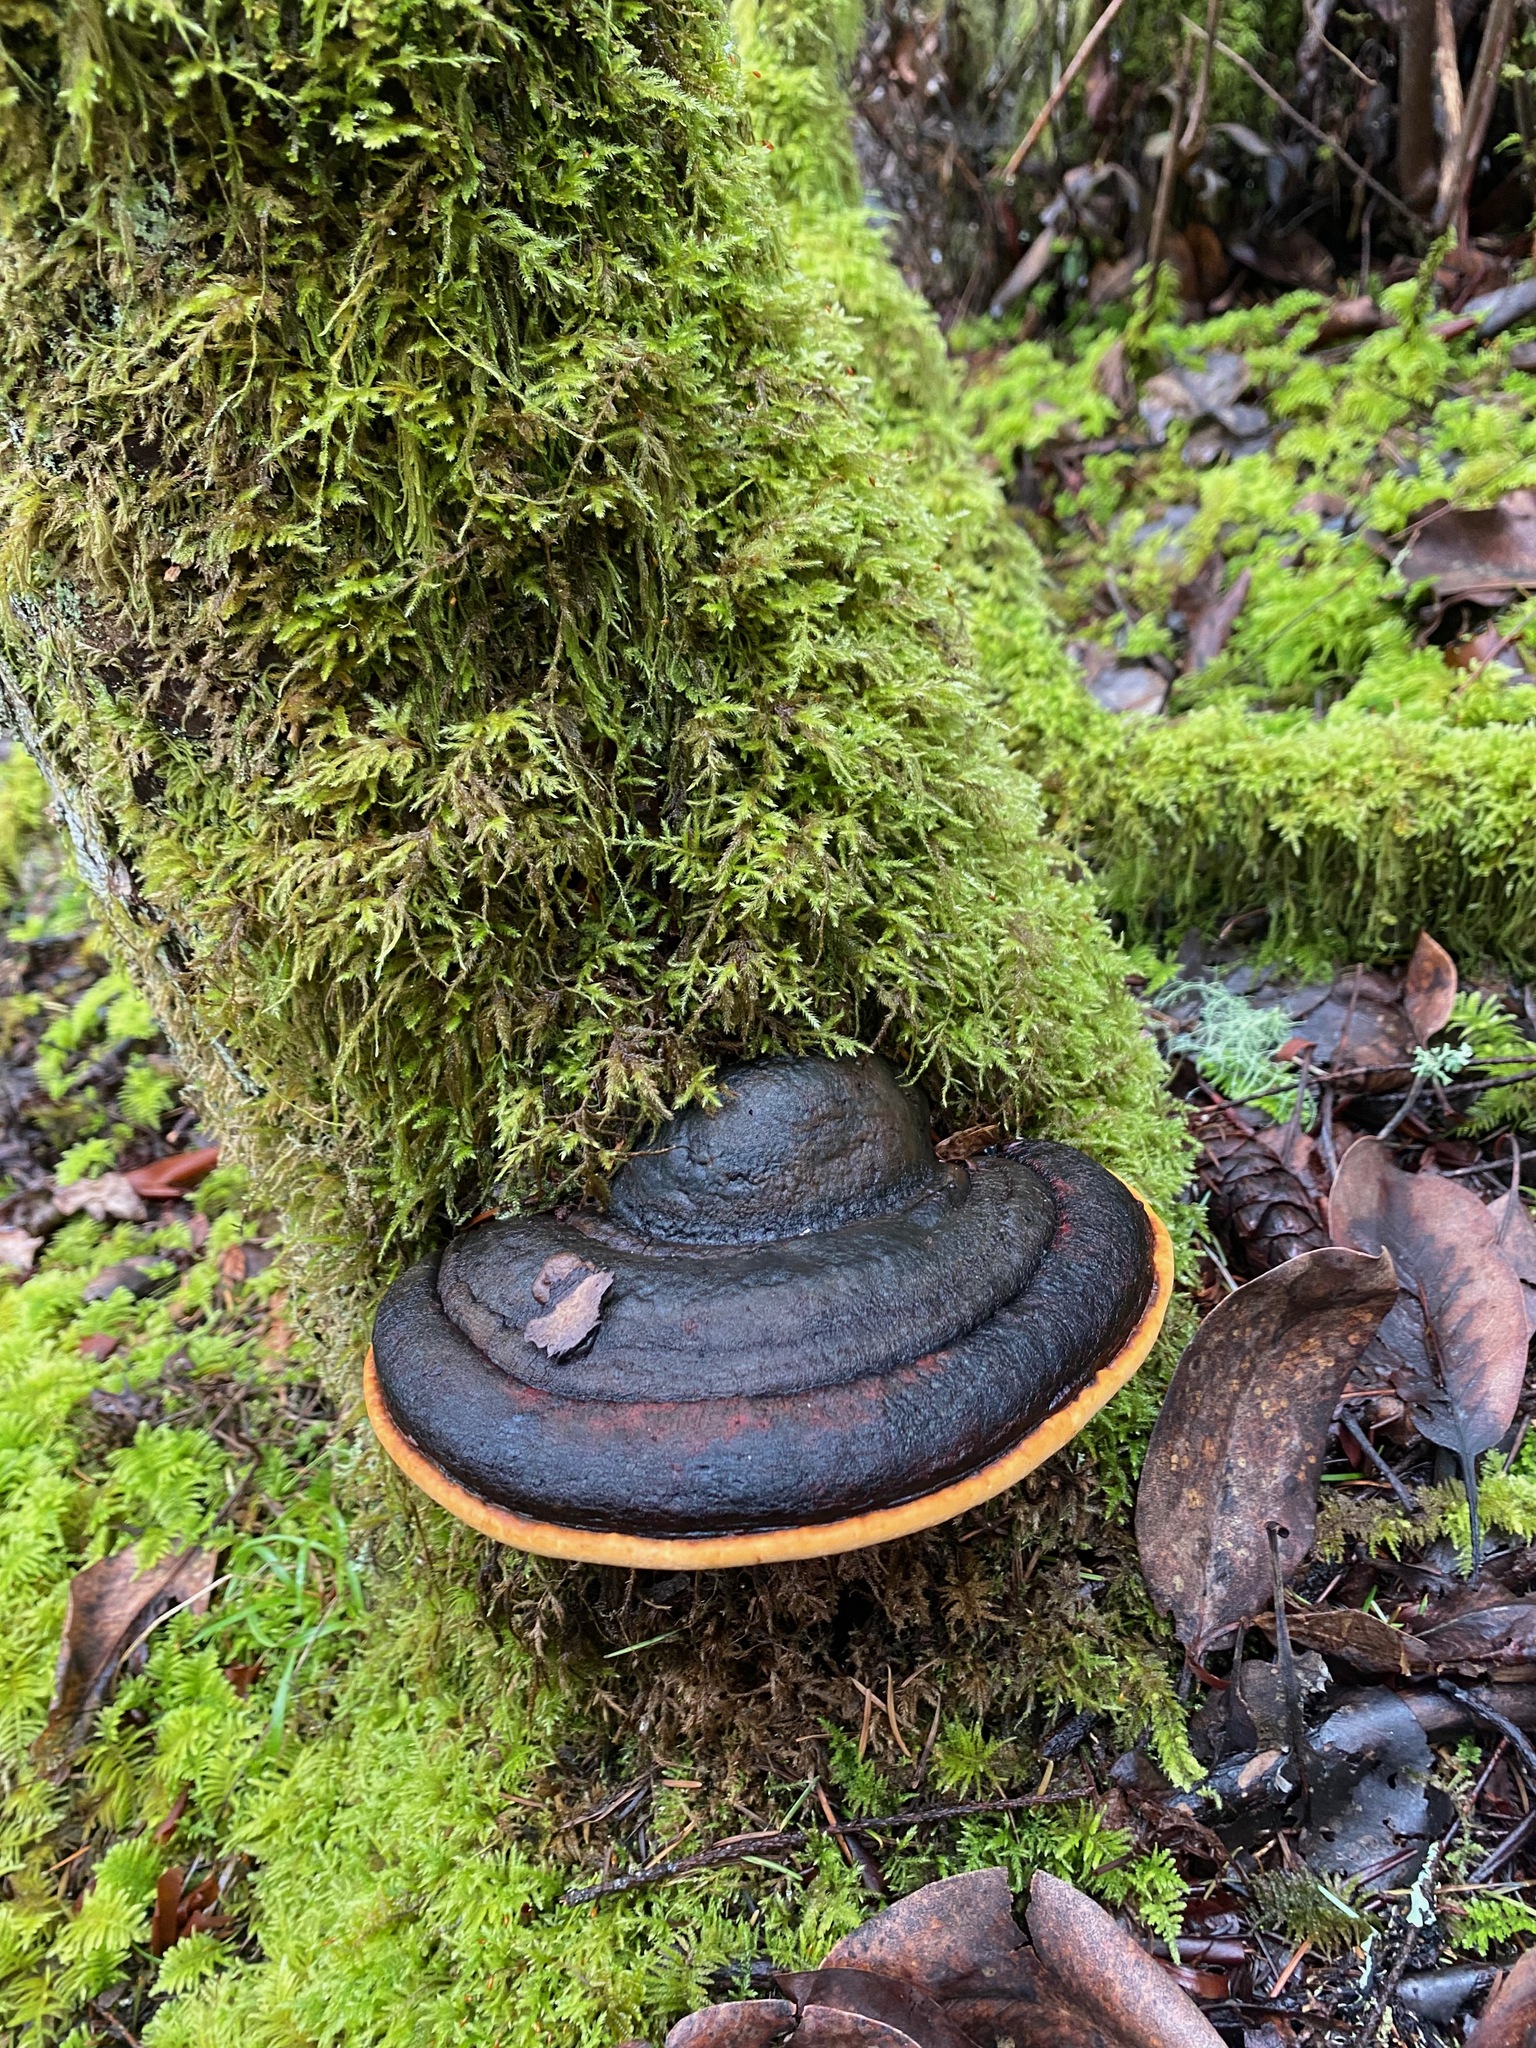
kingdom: Fungi
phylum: Basidiomycota
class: Agaricomycetes
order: Polyporales
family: Fomitopsidaceae
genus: Fomitopsis
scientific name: Fomitopsis mounceae
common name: Northern red belt
